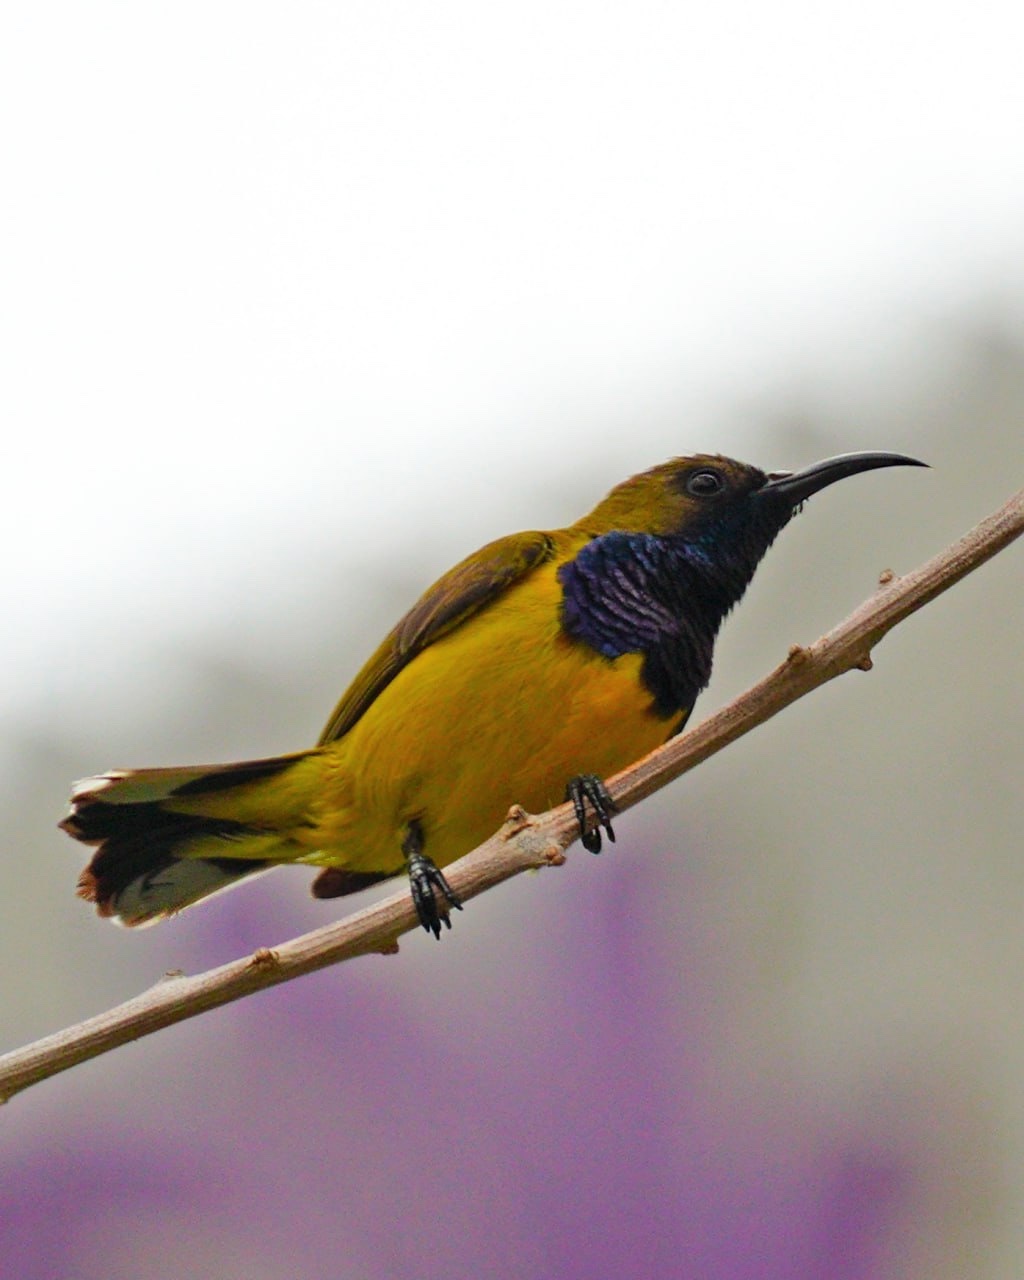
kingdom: Animalia
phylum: Chordata
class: Aves
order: Passeriformes
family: Nectariniidae
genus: Cinnyris
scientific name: Cinnyris
